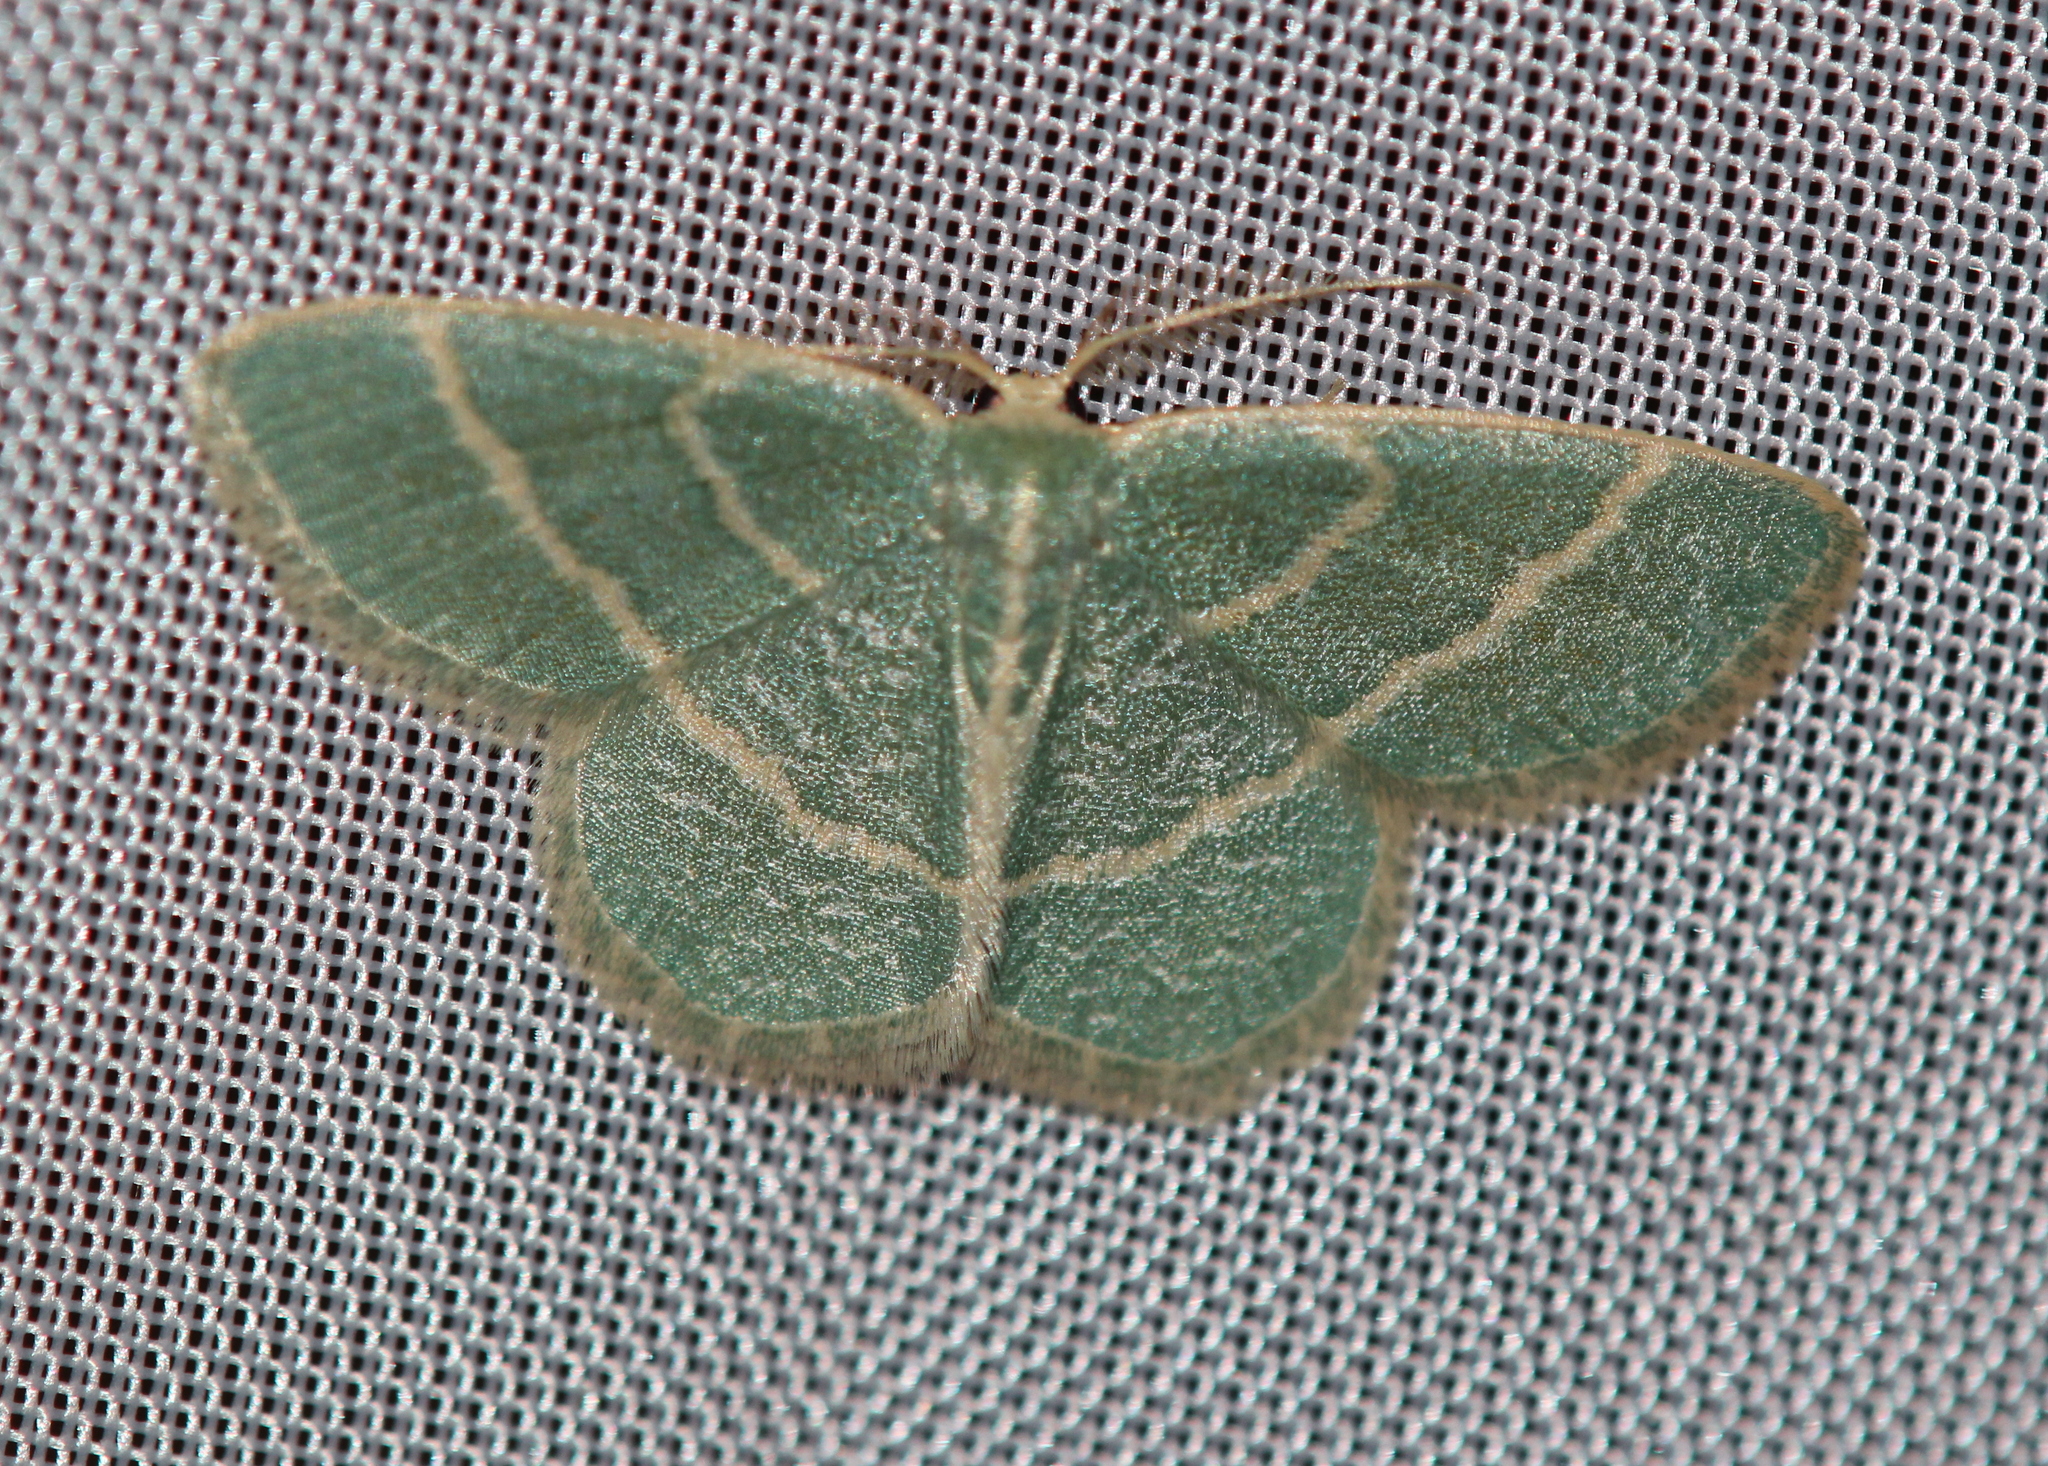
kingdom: Animalia
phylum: Arthropoda
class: Insecta
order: Lepidoptera
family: Geometridae
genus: Chlorochlamys
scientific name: Chlorochlamys chloroleucaria
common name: Blackberry looper
